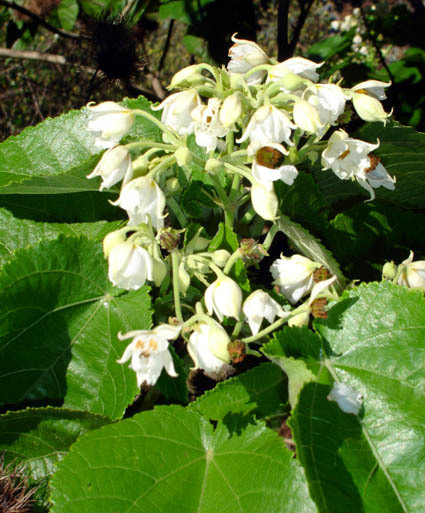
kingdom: Plantae
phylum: Tracheophyta
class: Magnoliopsida
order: Malvales
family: Malvaceae
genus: Entelea
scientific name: Entelea arborescens
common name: New zealand-mulberry
